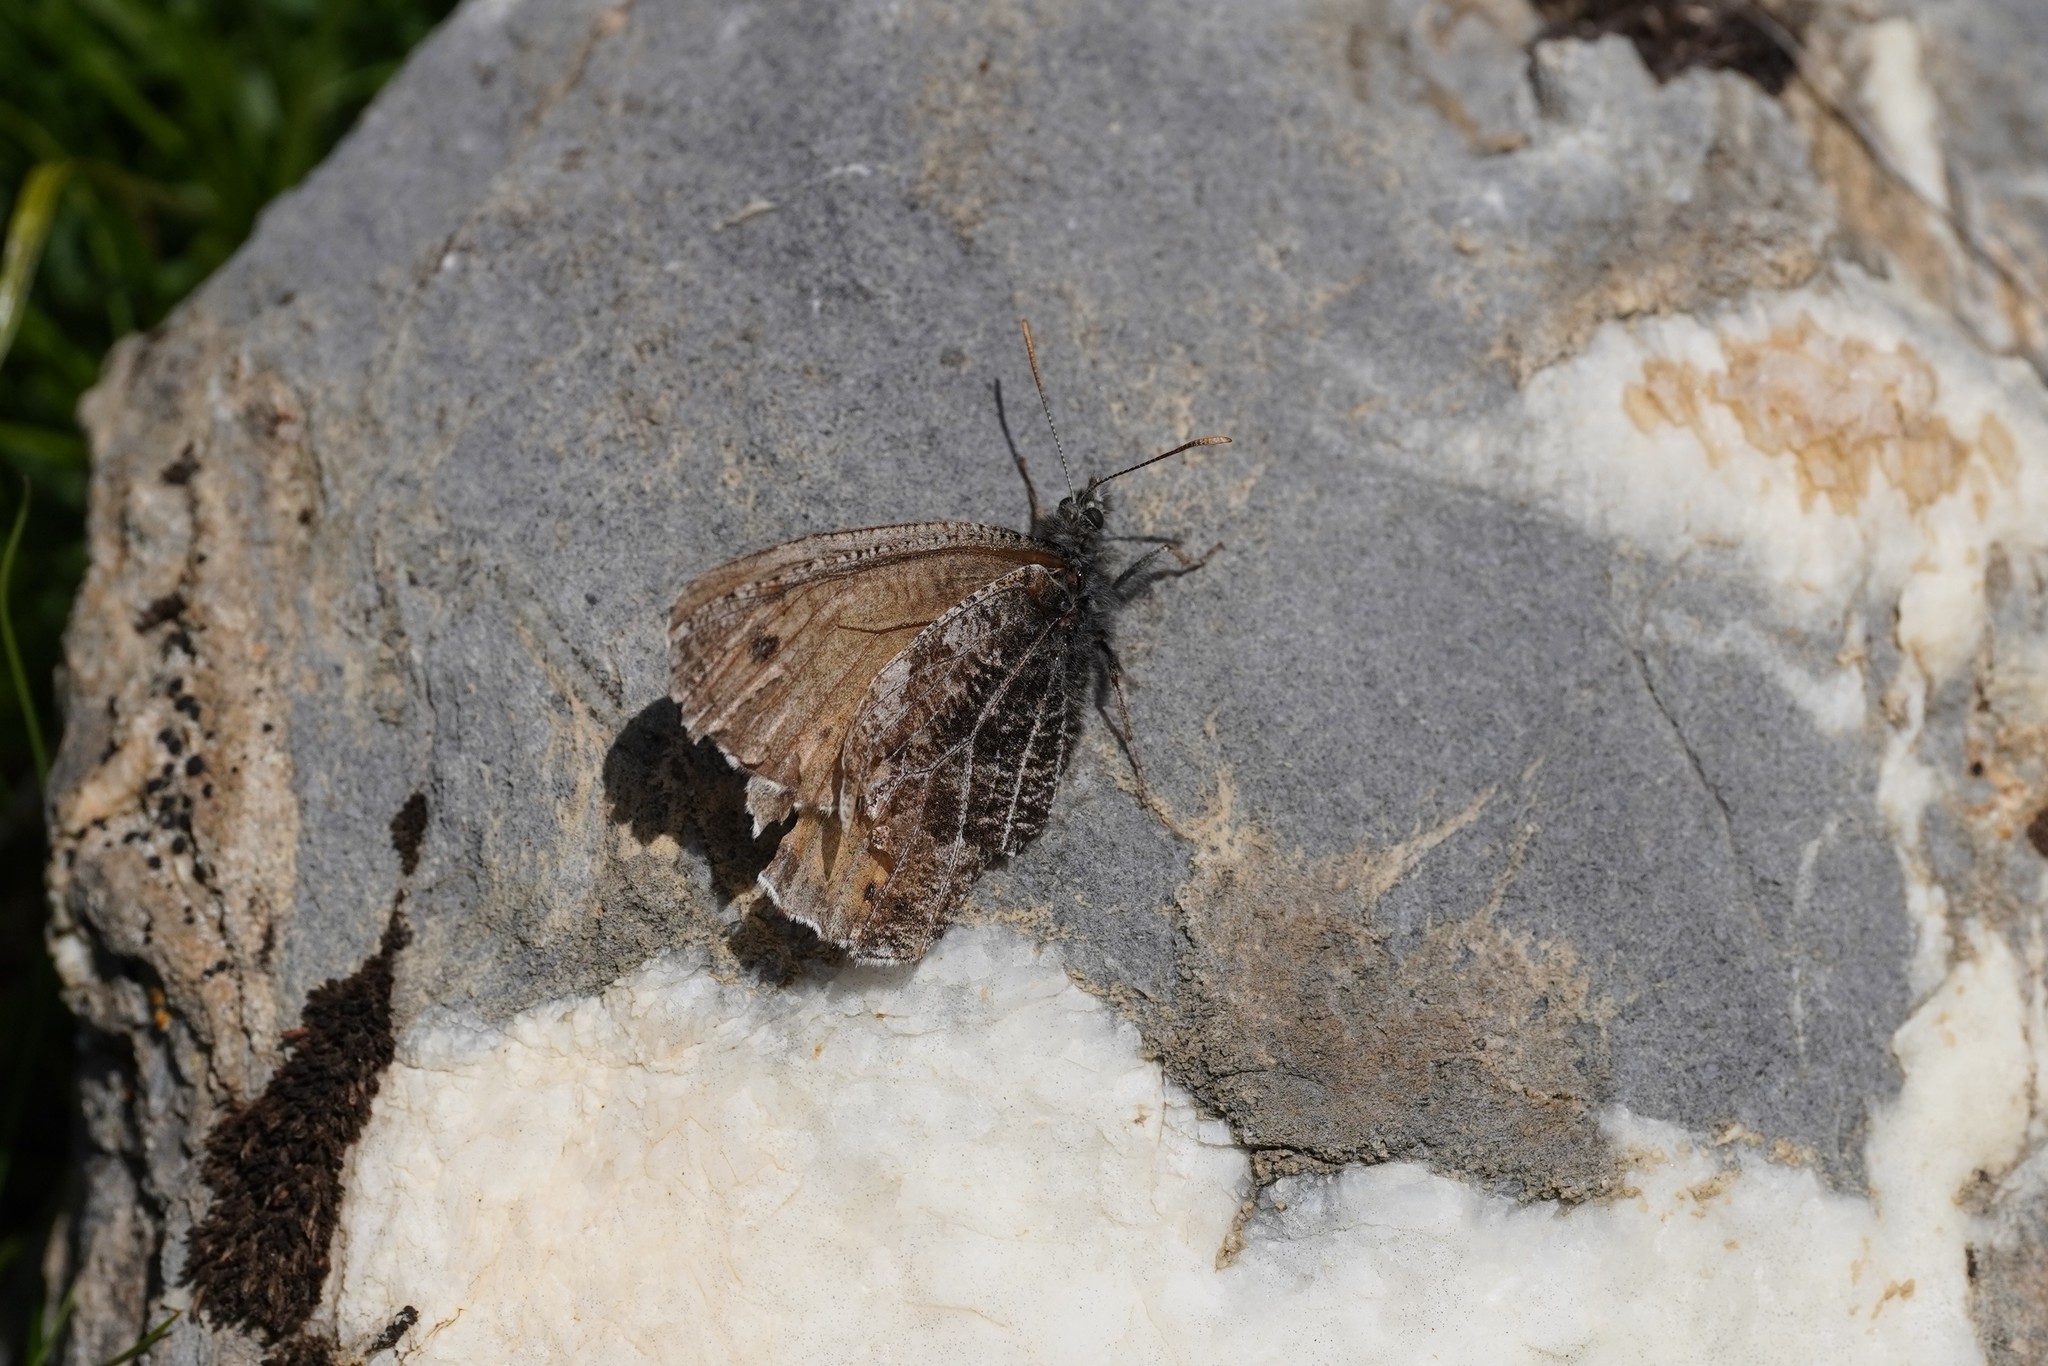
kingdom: Animalia
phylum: Arthropoda
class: Insecta
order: Lepidoptera
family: Nymphalidae
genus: Oeneis
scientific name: Oeneis aello
